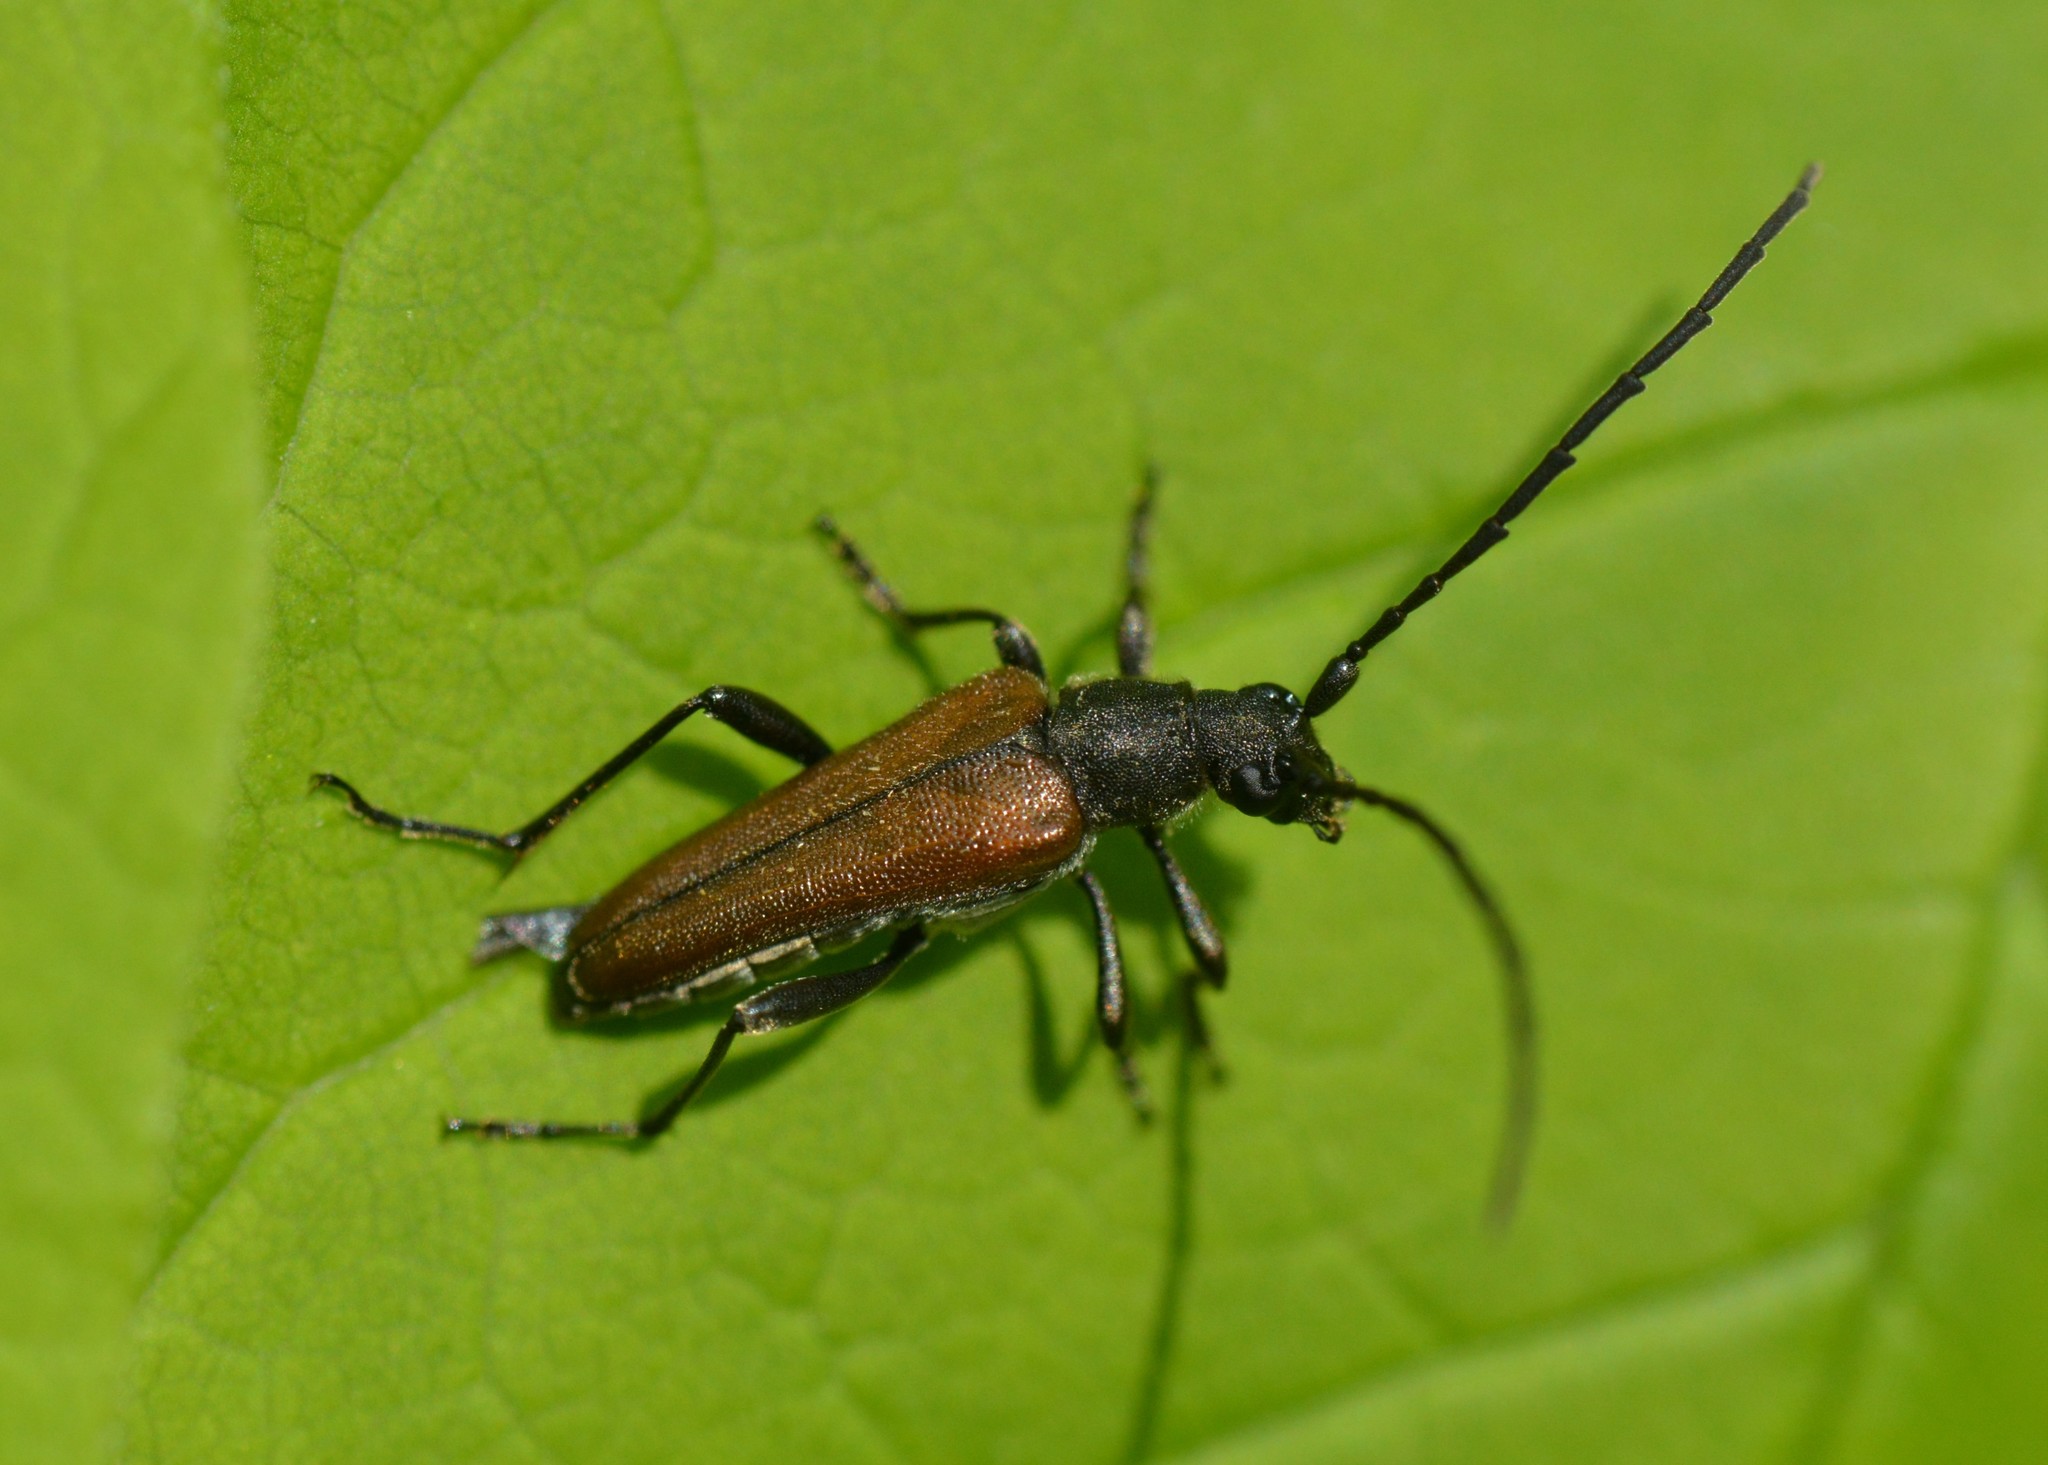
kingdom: Animalia
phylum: Arthropoda
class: Insecta
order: Coleoptera
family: Cerambycidae
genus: Trachysida
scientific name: Trachysida mutabilis
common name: Changeable flower longhorn
